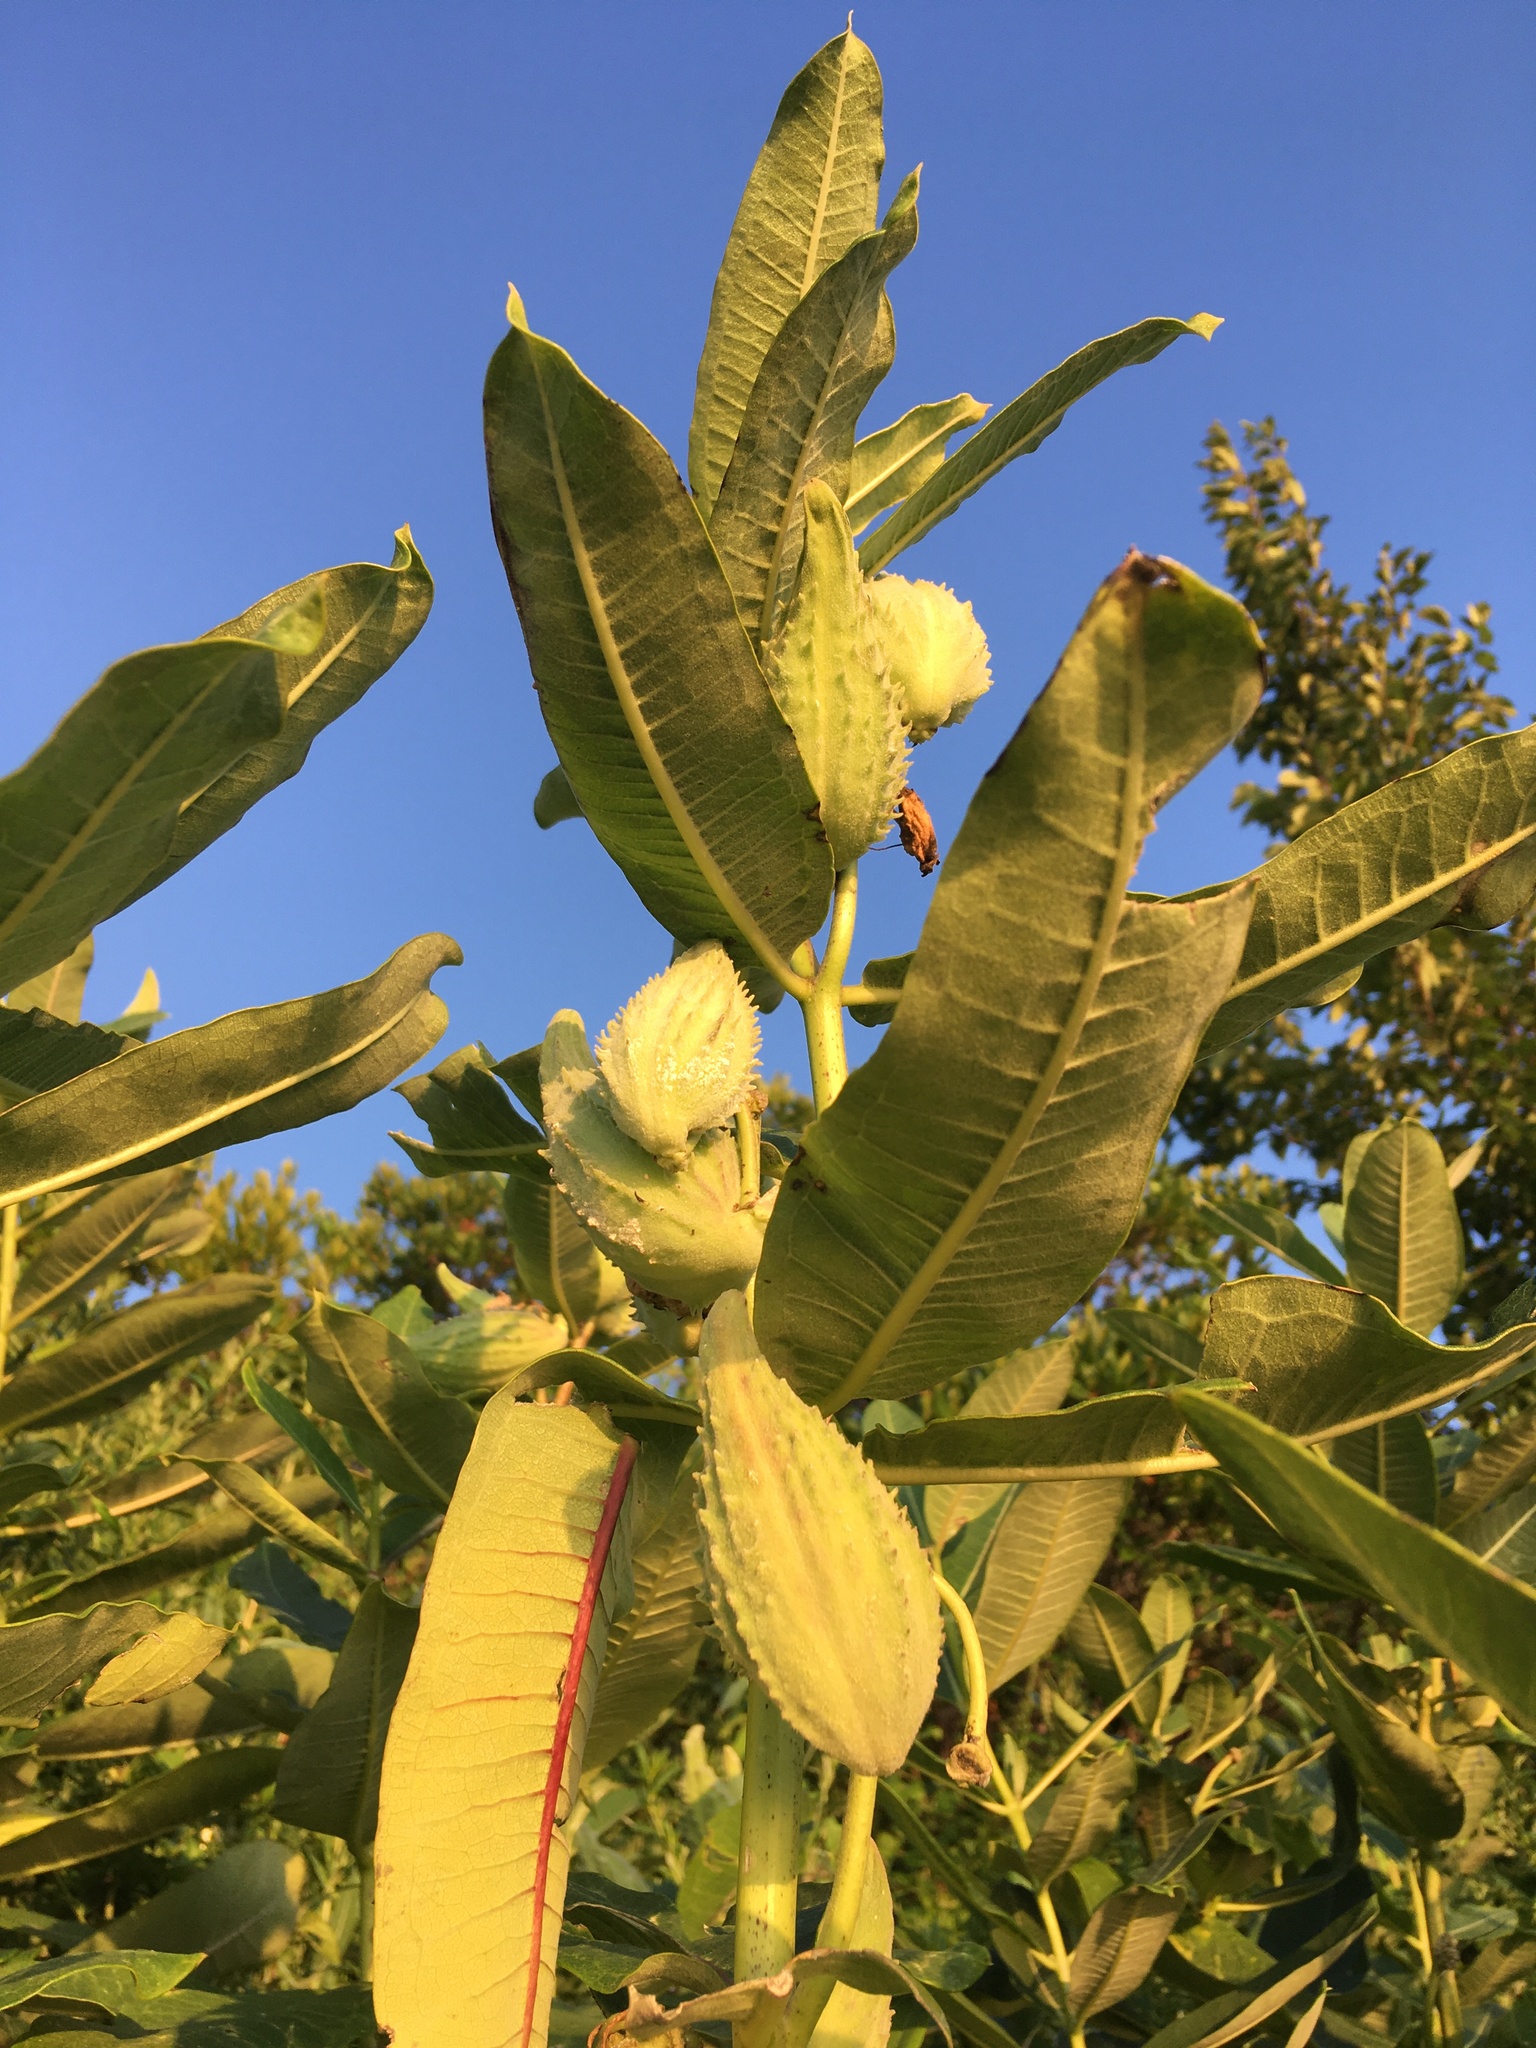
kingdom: Plantae
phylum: Tracheophyta
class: Magnoliopsida
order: Gentianales
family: Apocynaceae
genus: Asclepias
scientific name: Asclepias syriaca
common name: Common milkweed
